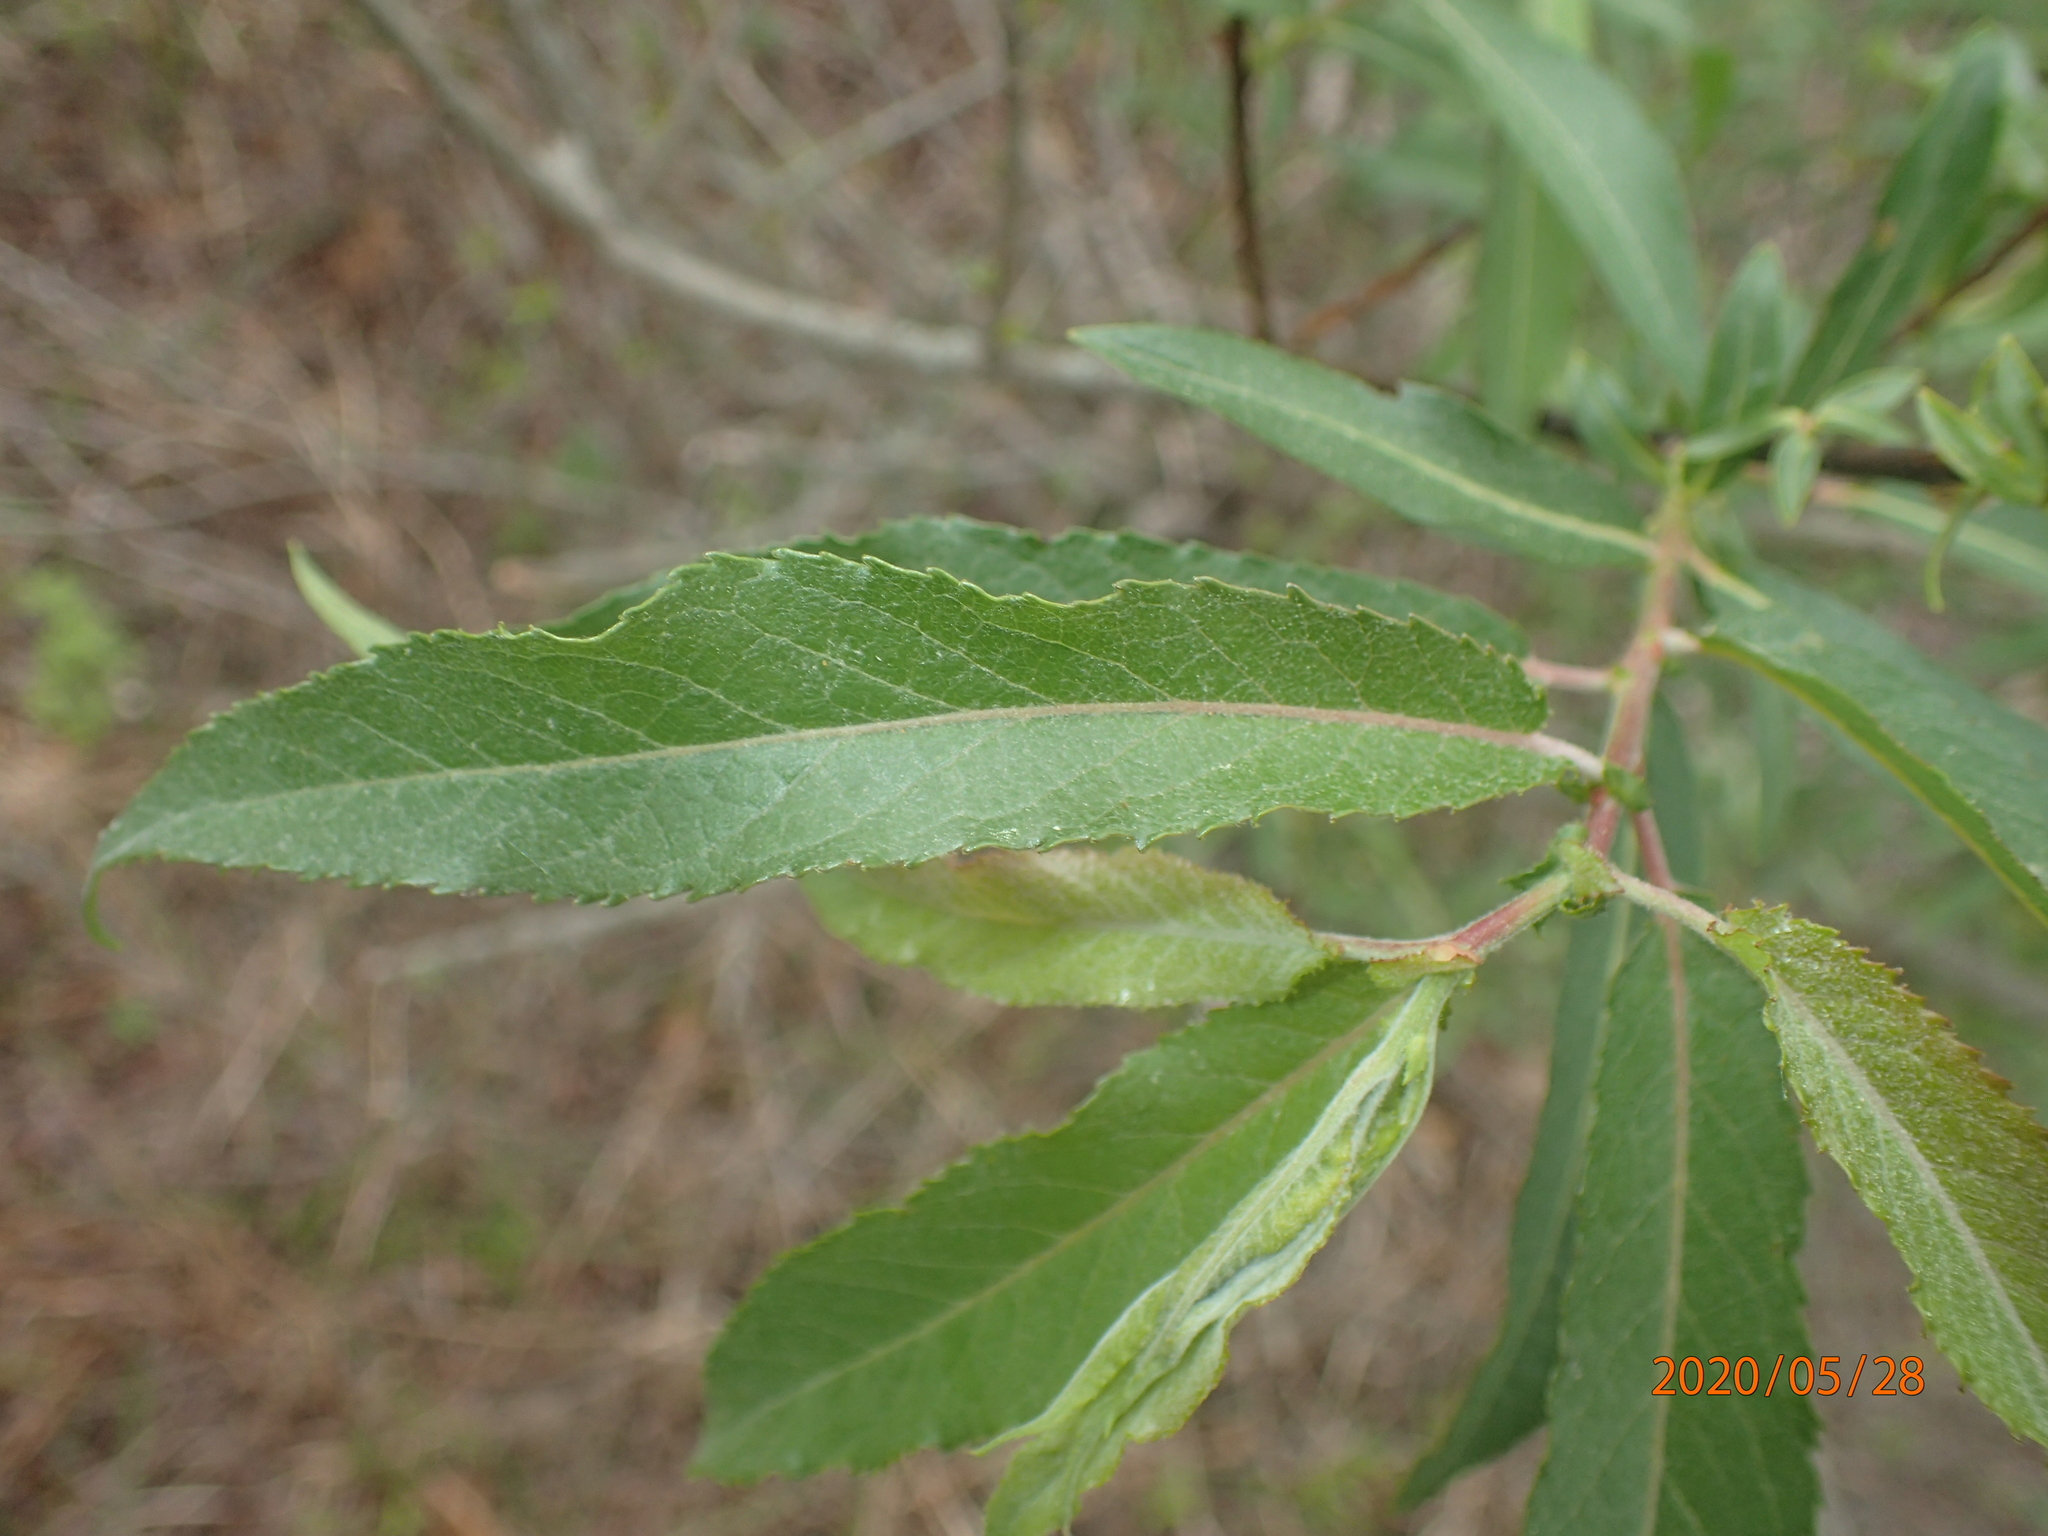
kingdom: Plantae
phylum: Tracheophyta
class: Magnoliopsida
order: Malpighiales
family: Salicaceae
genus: Salix
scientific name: Salix eriocephala
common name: Heart-leaved willow
